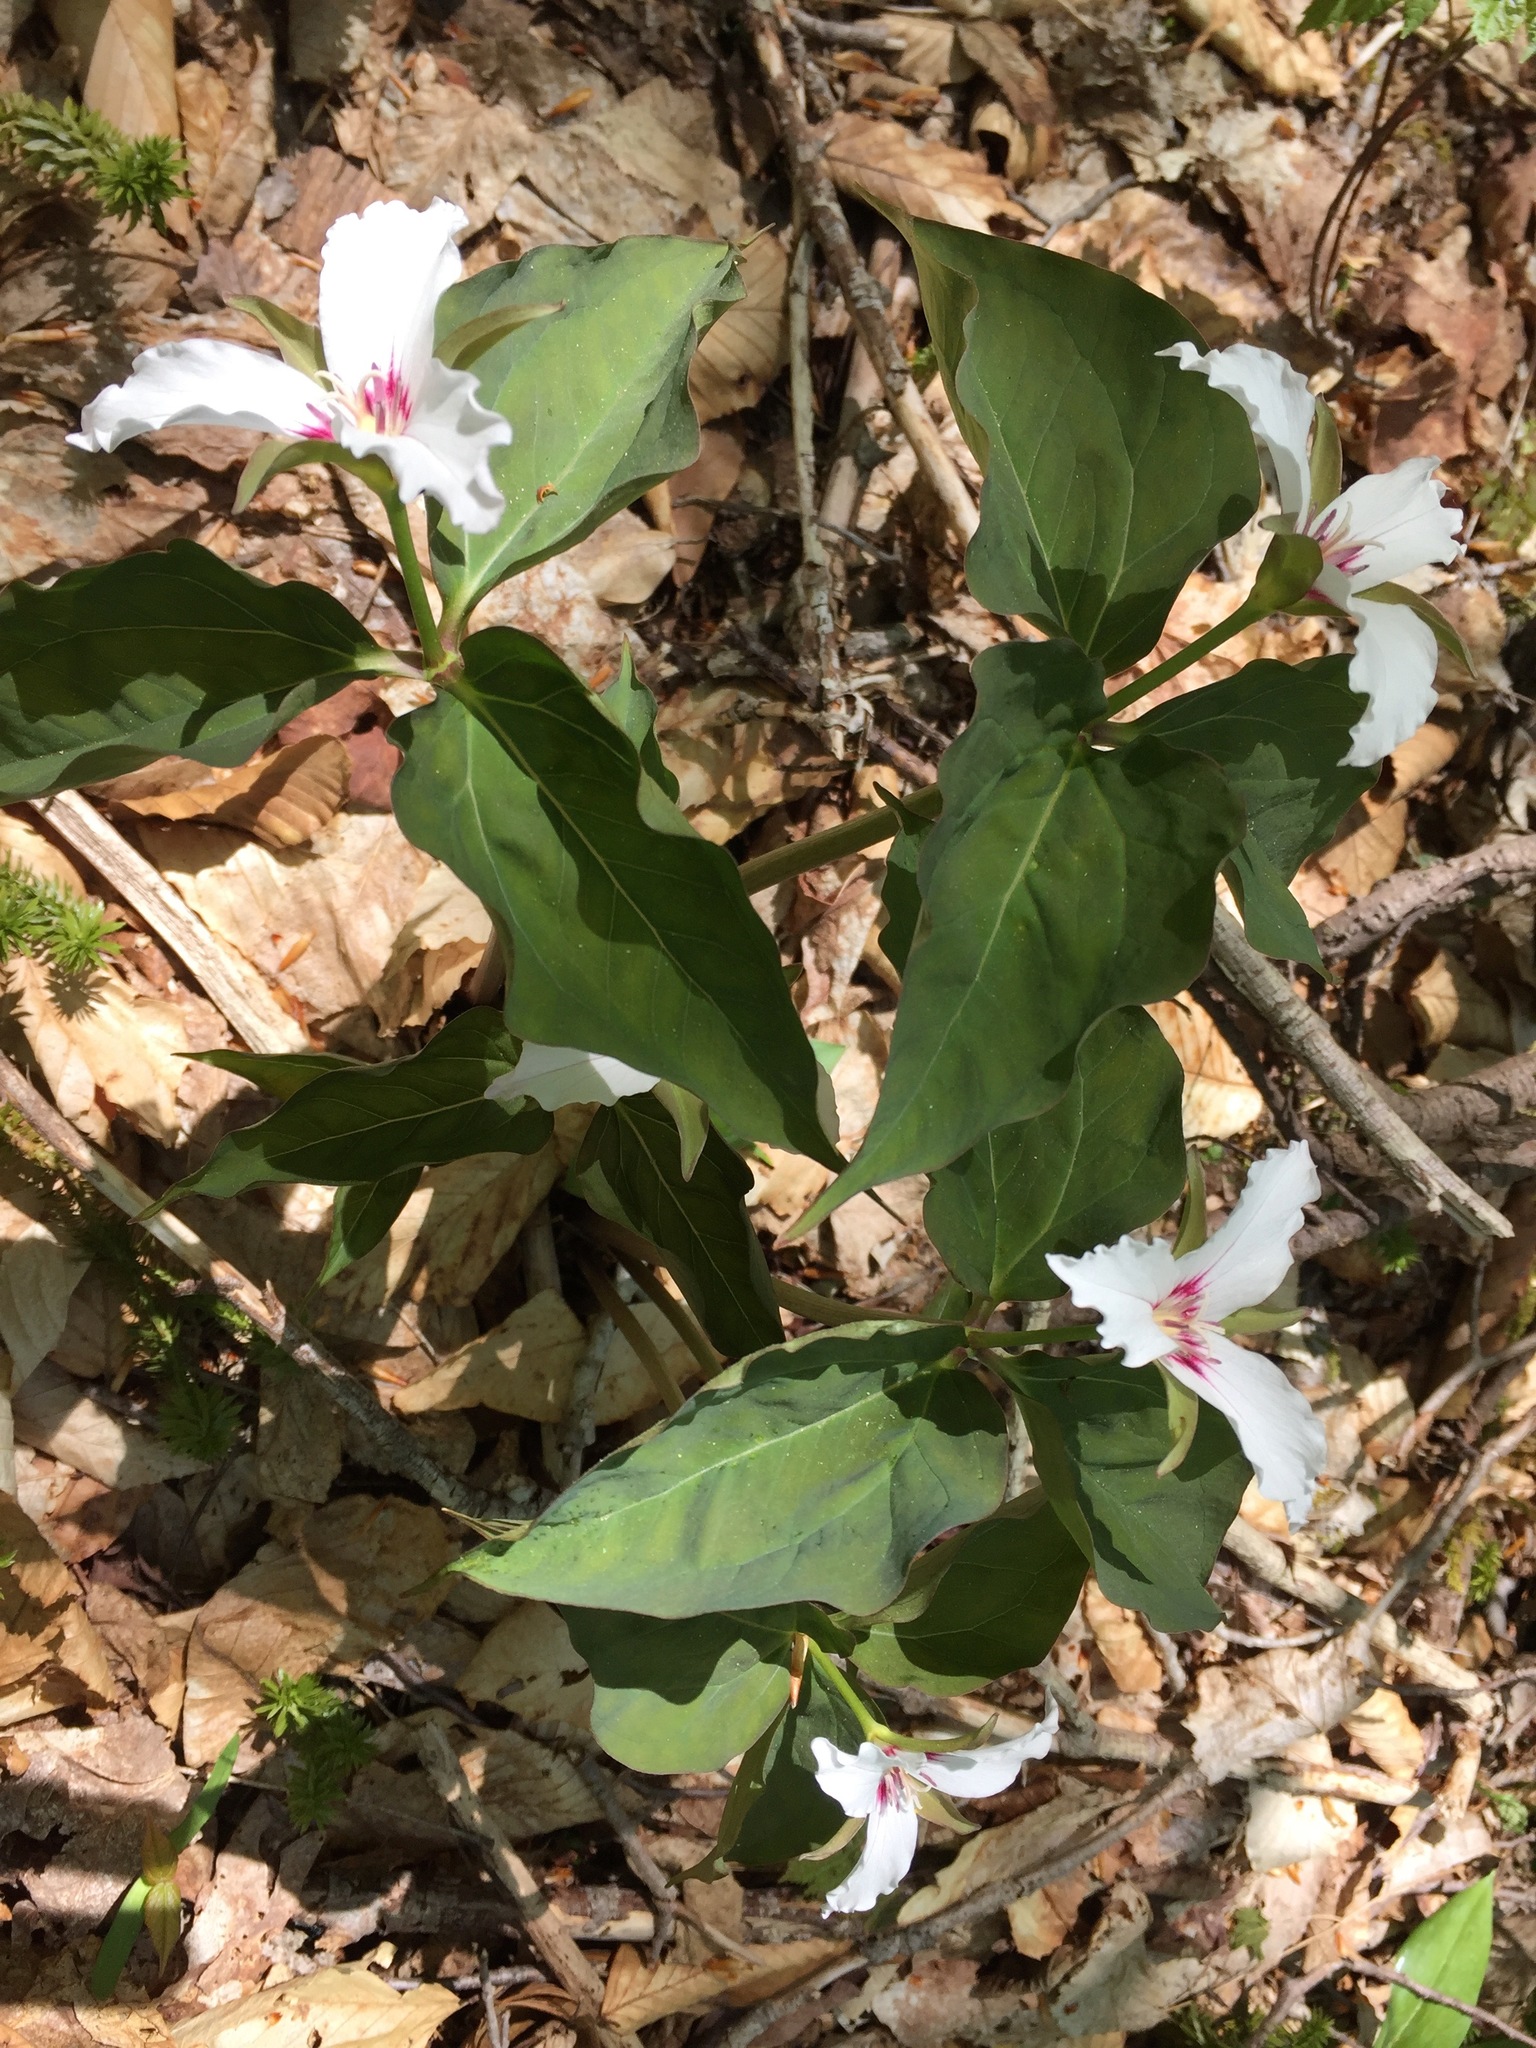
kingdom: Plantae
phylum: Tracheophyta
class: Liliopsida
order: Liliales
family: Melanthiaceae
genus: Trillium
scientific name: Trillium undulatum
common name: Paint trillium
